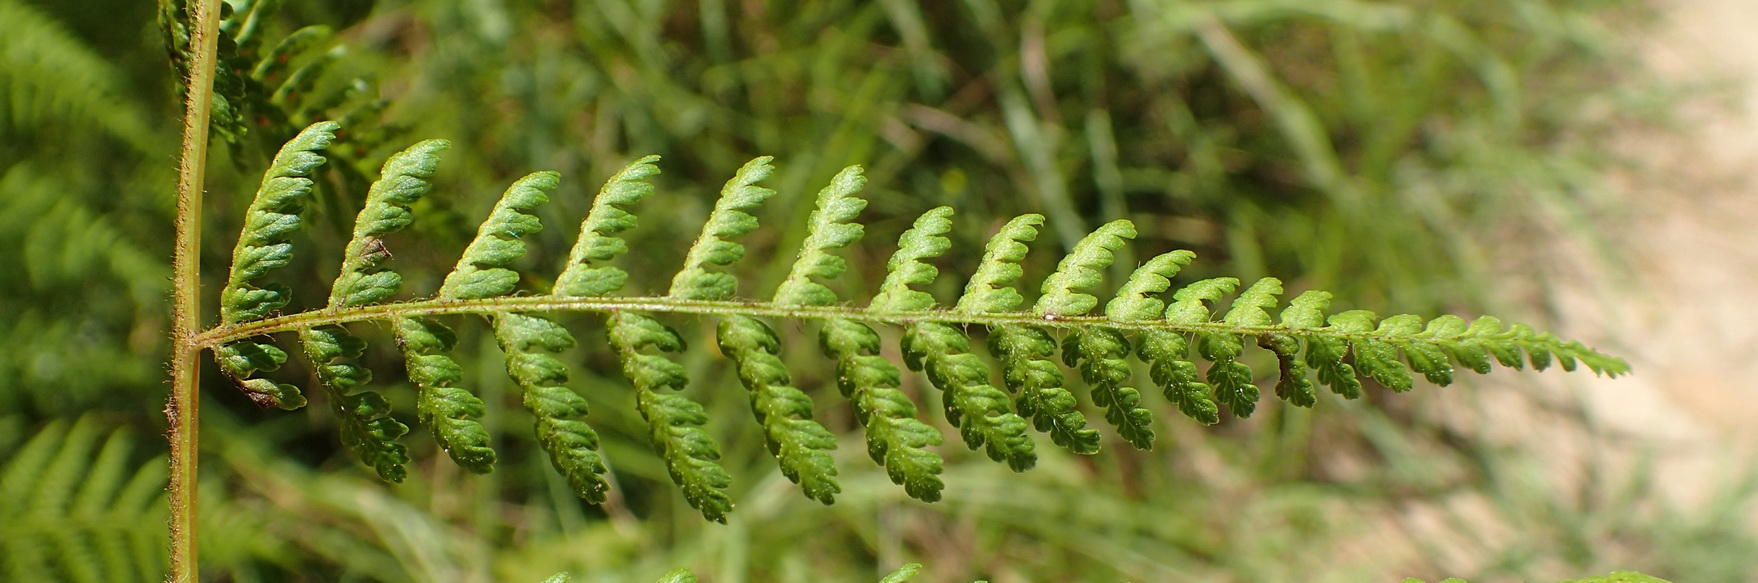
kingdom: Plantae
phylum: Tracheophyta
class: Polypodiopsida
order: Polypodiales
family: Dennstaedtiaceae
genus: Hypolepis
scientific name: Hypolepis sparsisora
